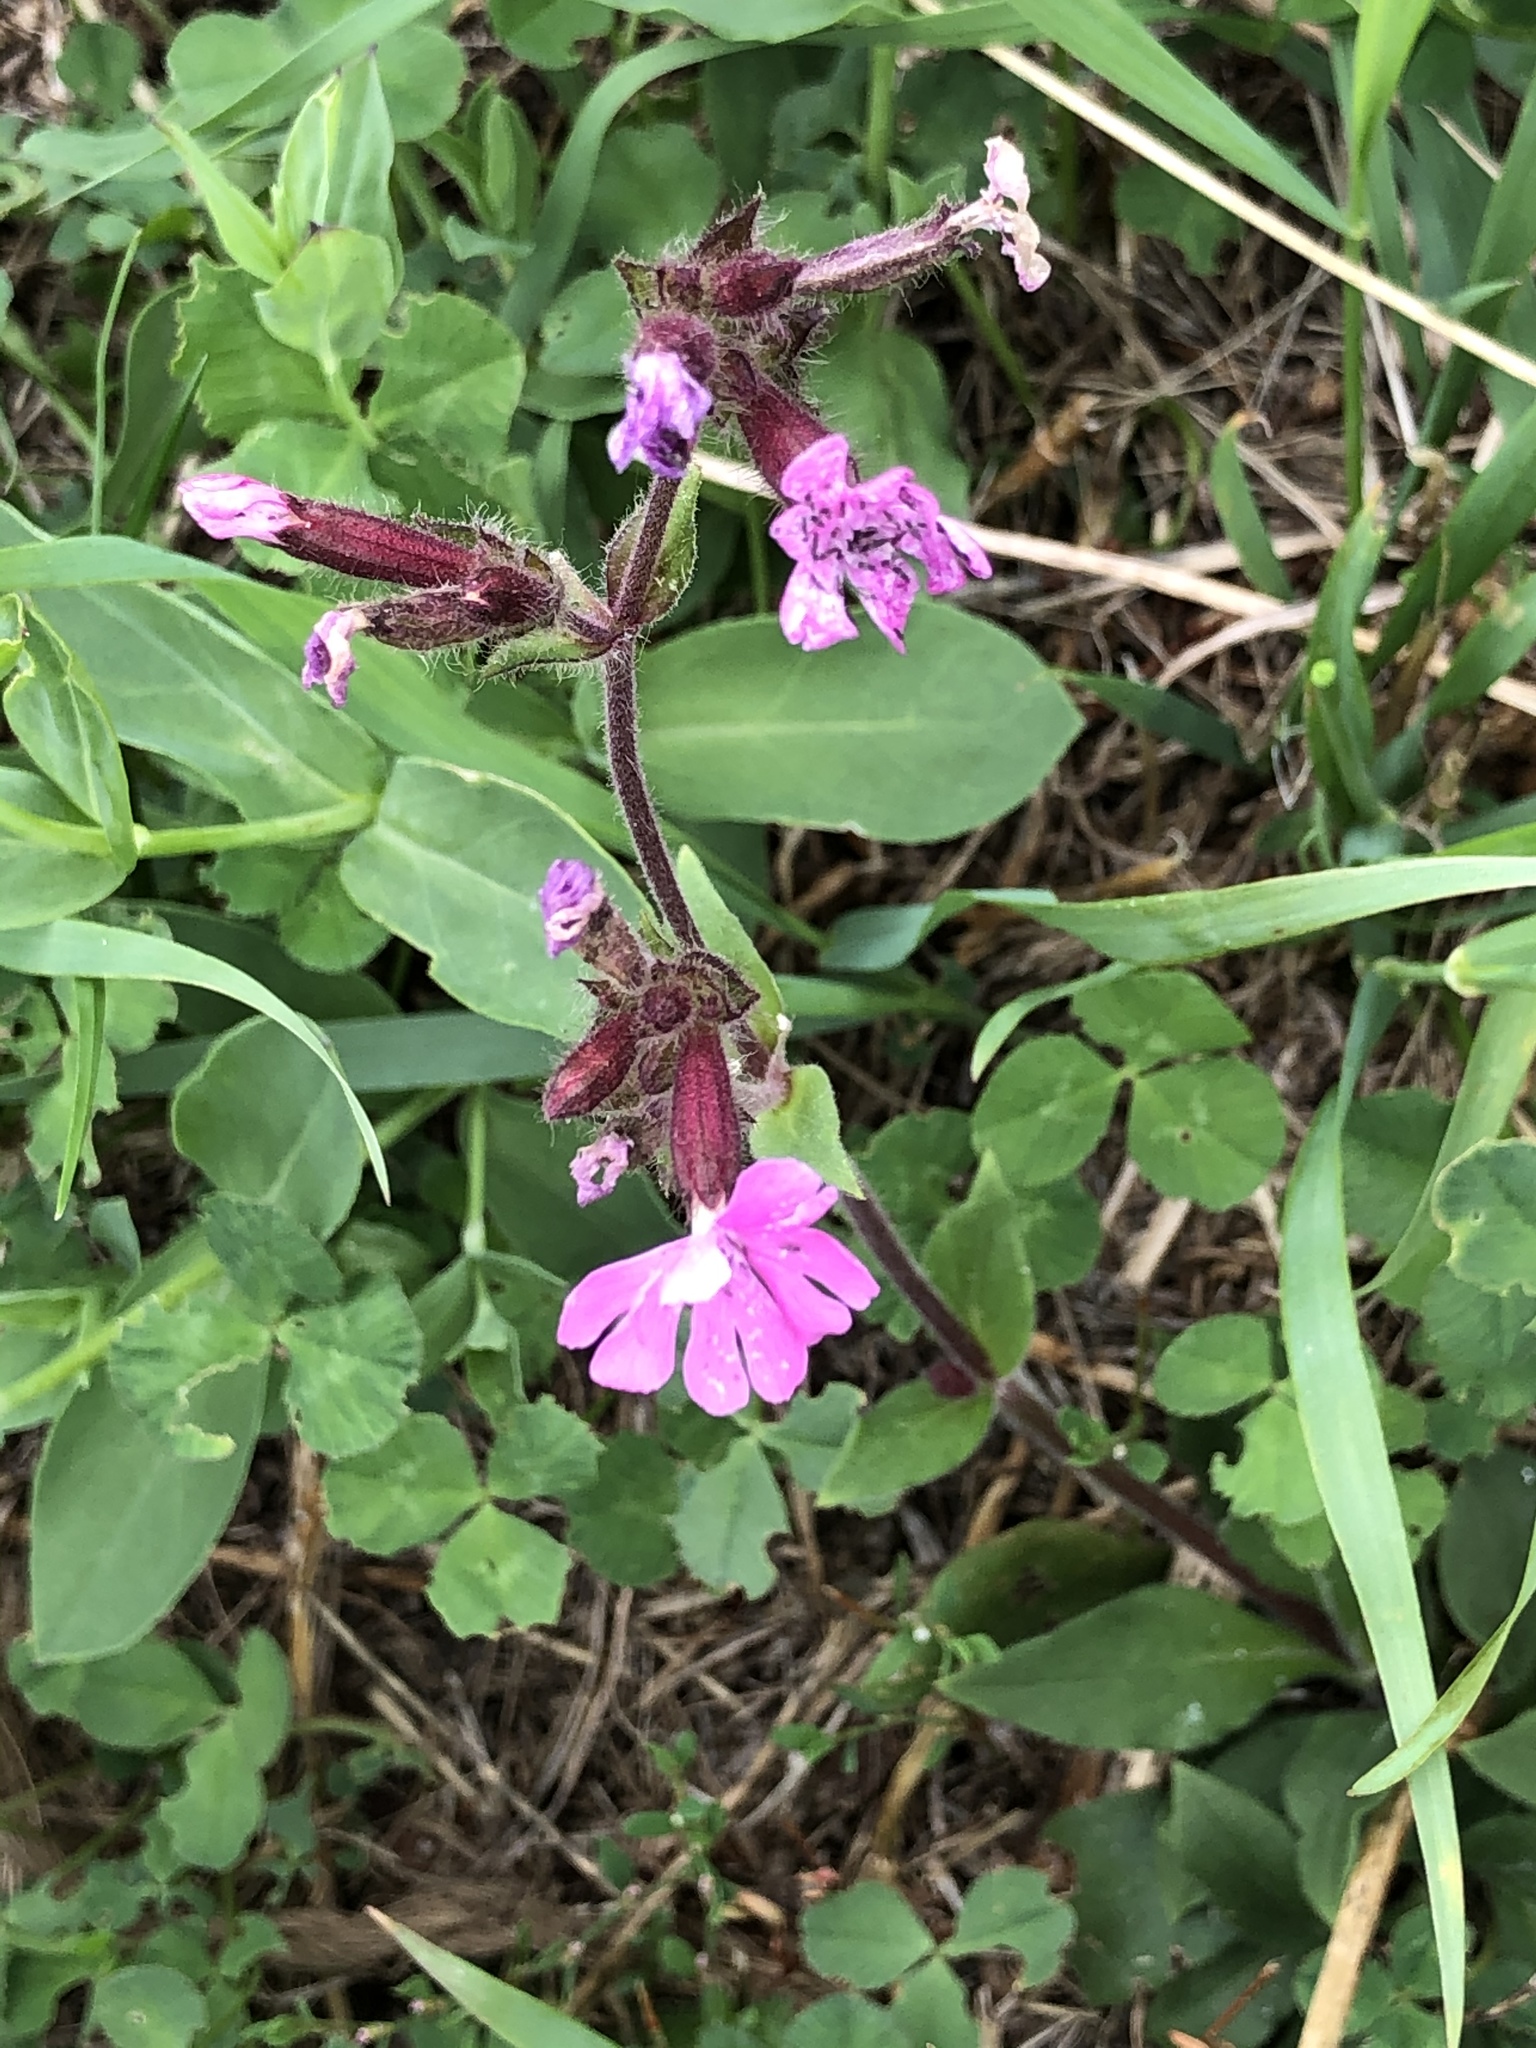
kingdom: Plantae
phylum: Tracheophyta
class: Magnoliopsida
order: Caryophyllales
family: Caryophyllaceae
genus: Silene
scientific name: Silene dioica
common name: Red campion
